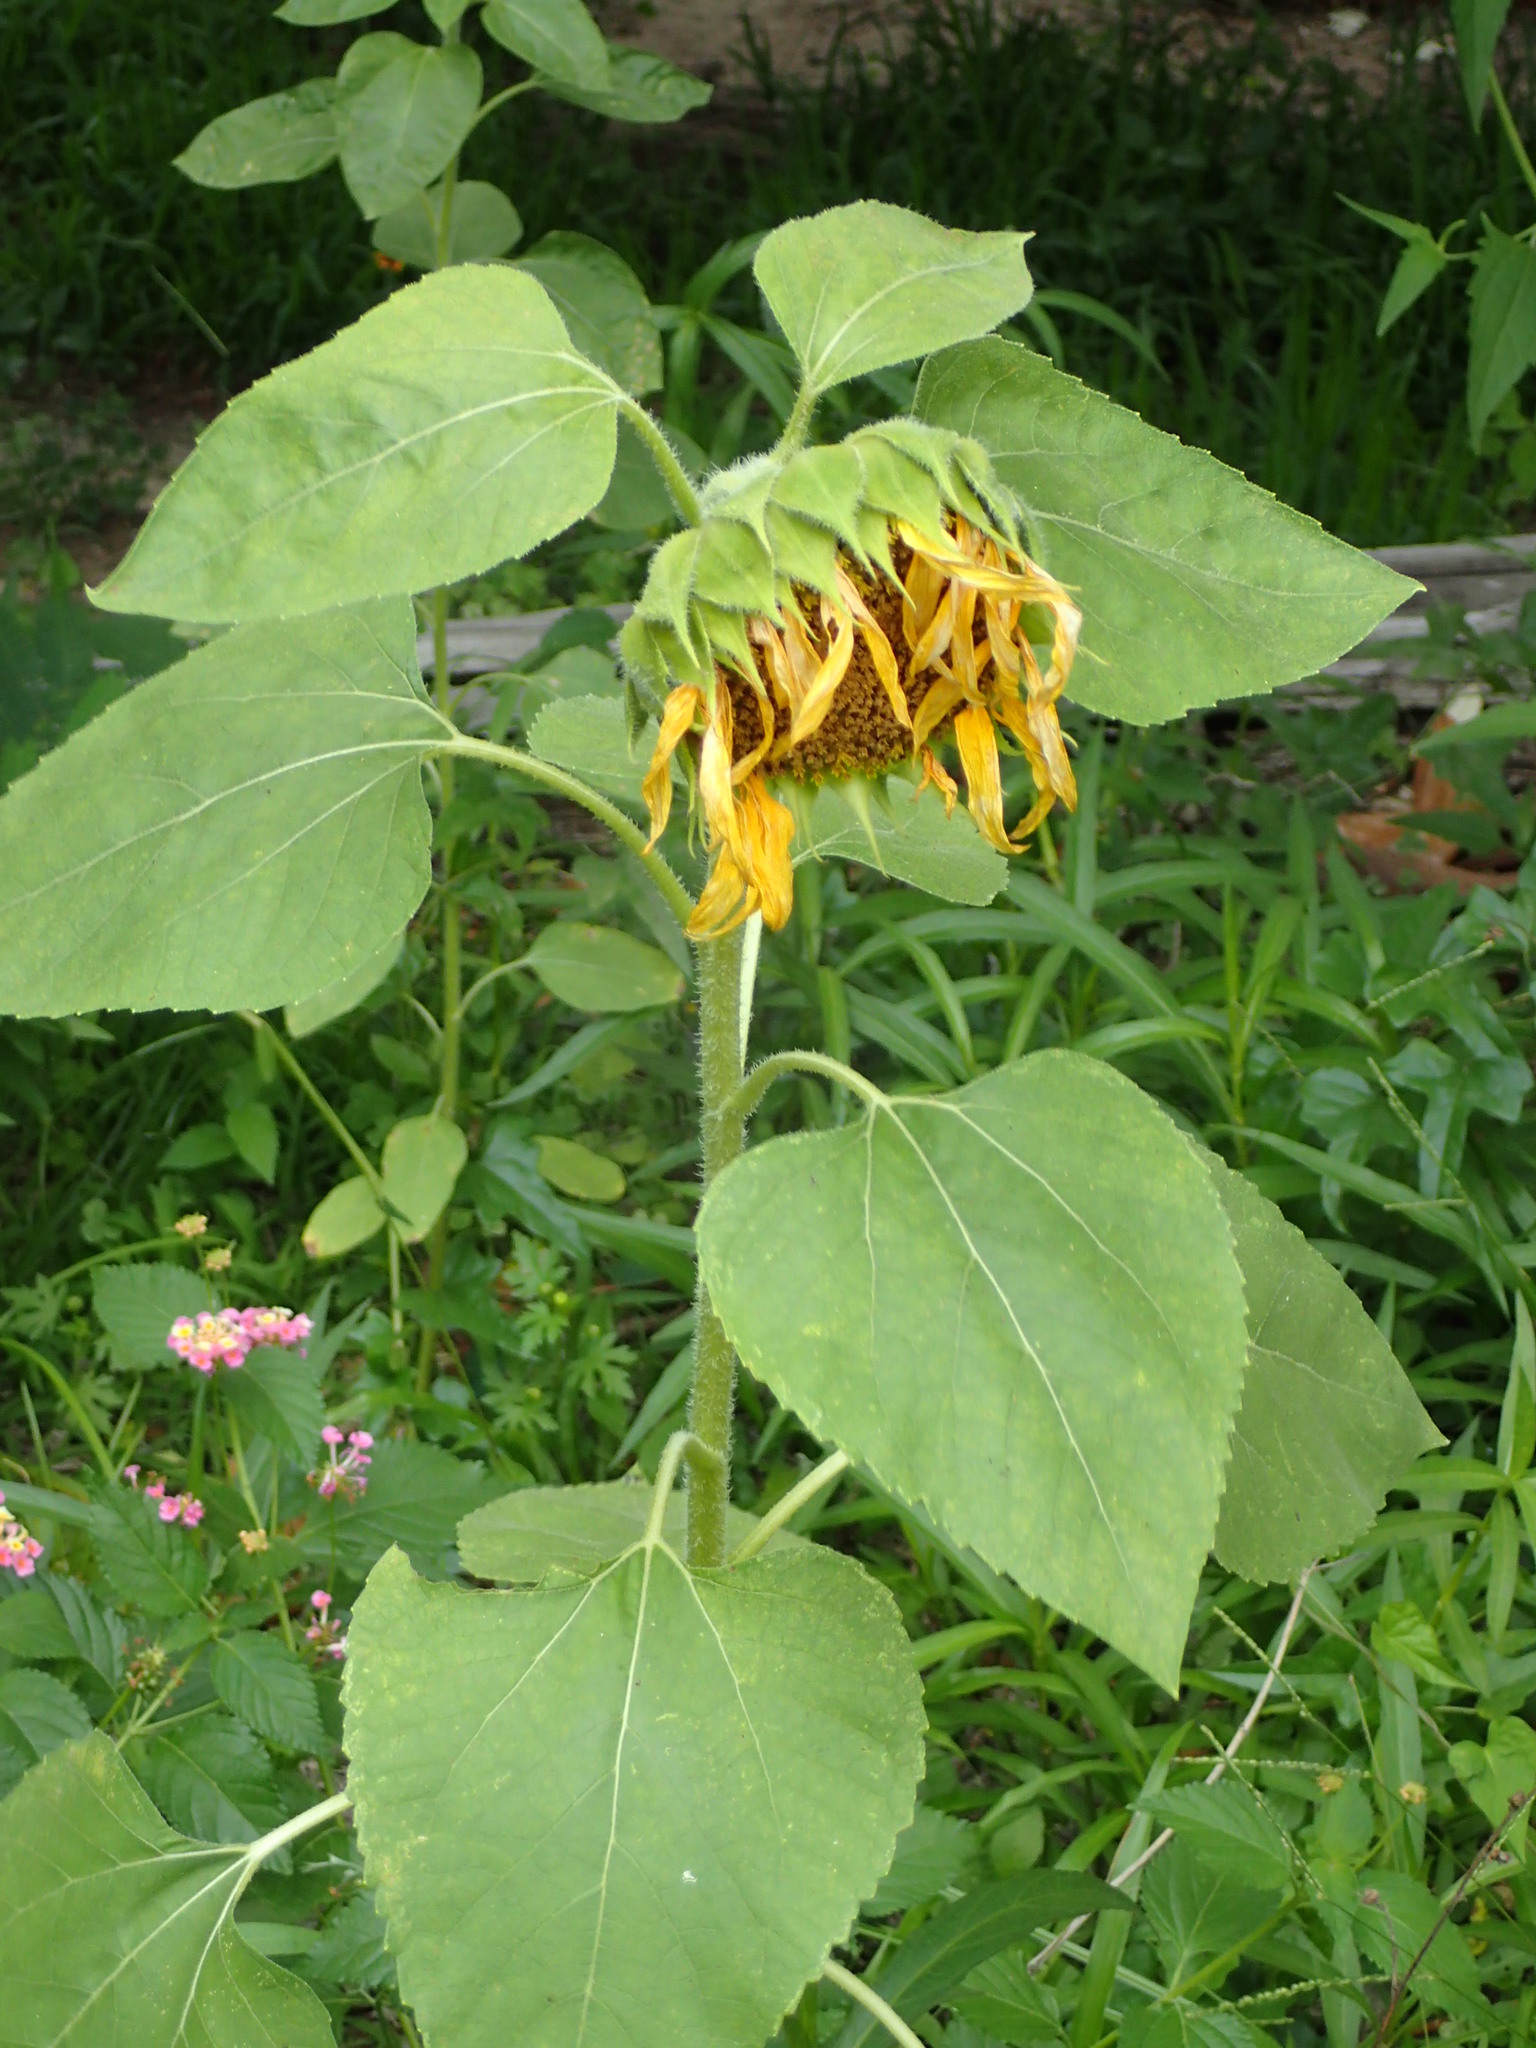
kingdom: Plantae
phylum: Tracheophyta
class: Magnoliopsida
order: Asterales
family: Asteraceae
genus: Helianthus
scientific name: Helianthus annuus
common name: Sunflower
